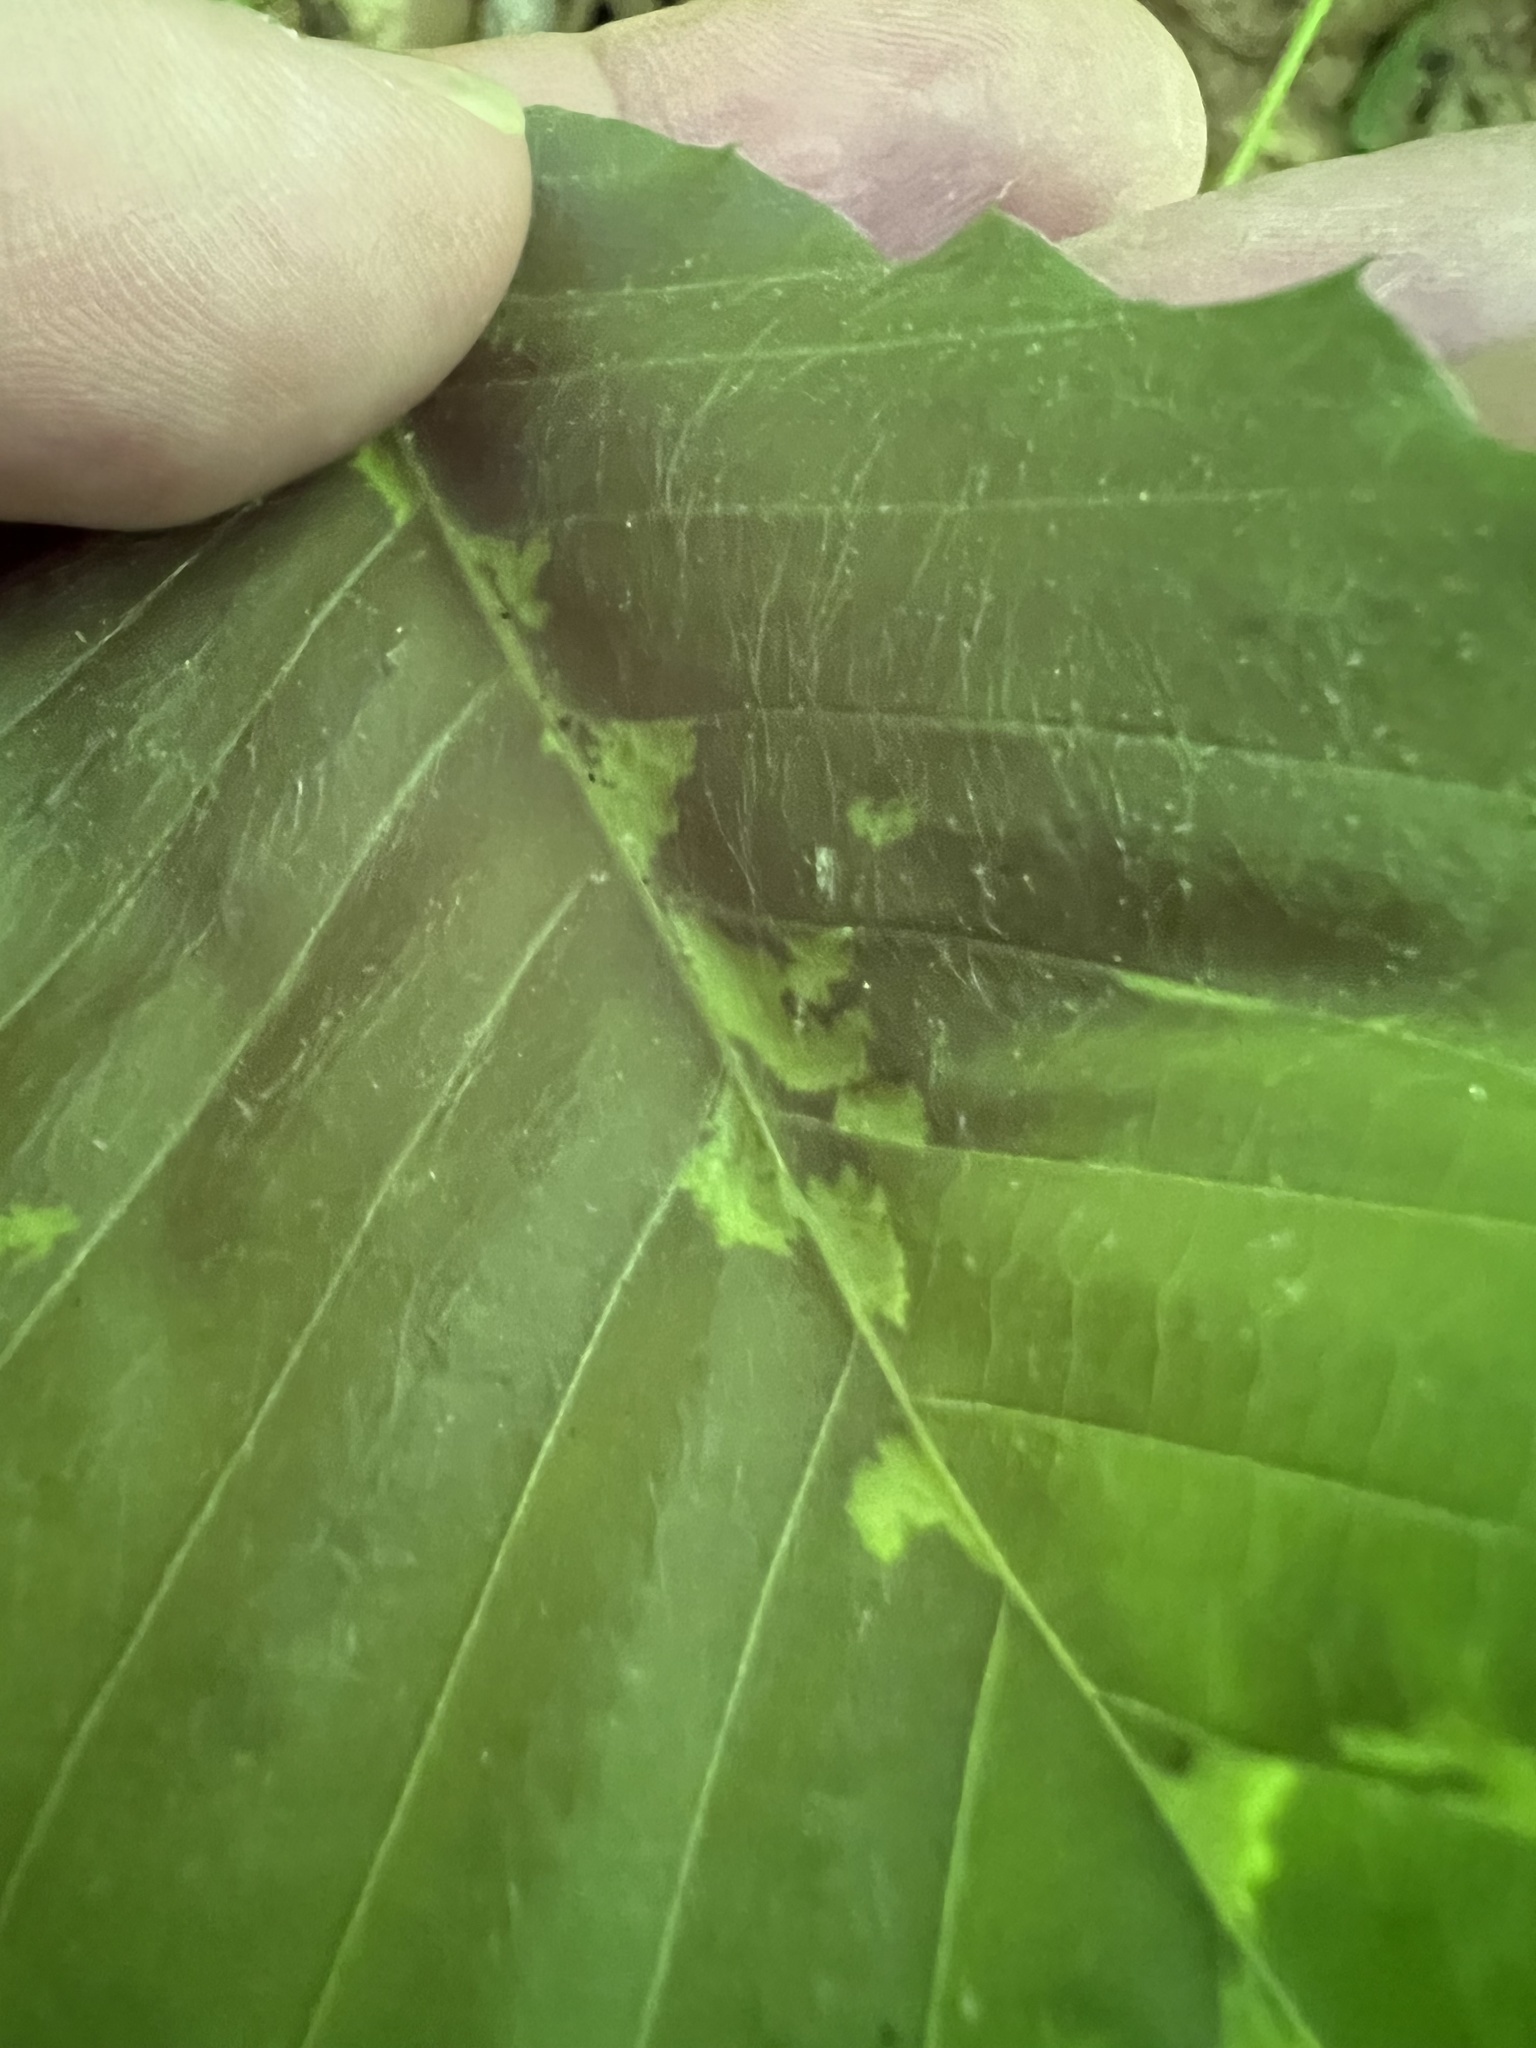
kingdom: Animalia
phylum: Arthropoda
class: Arachnida
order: Trombidiformes
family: Eriophyidae
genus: Acalitus
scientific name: Acalitus
